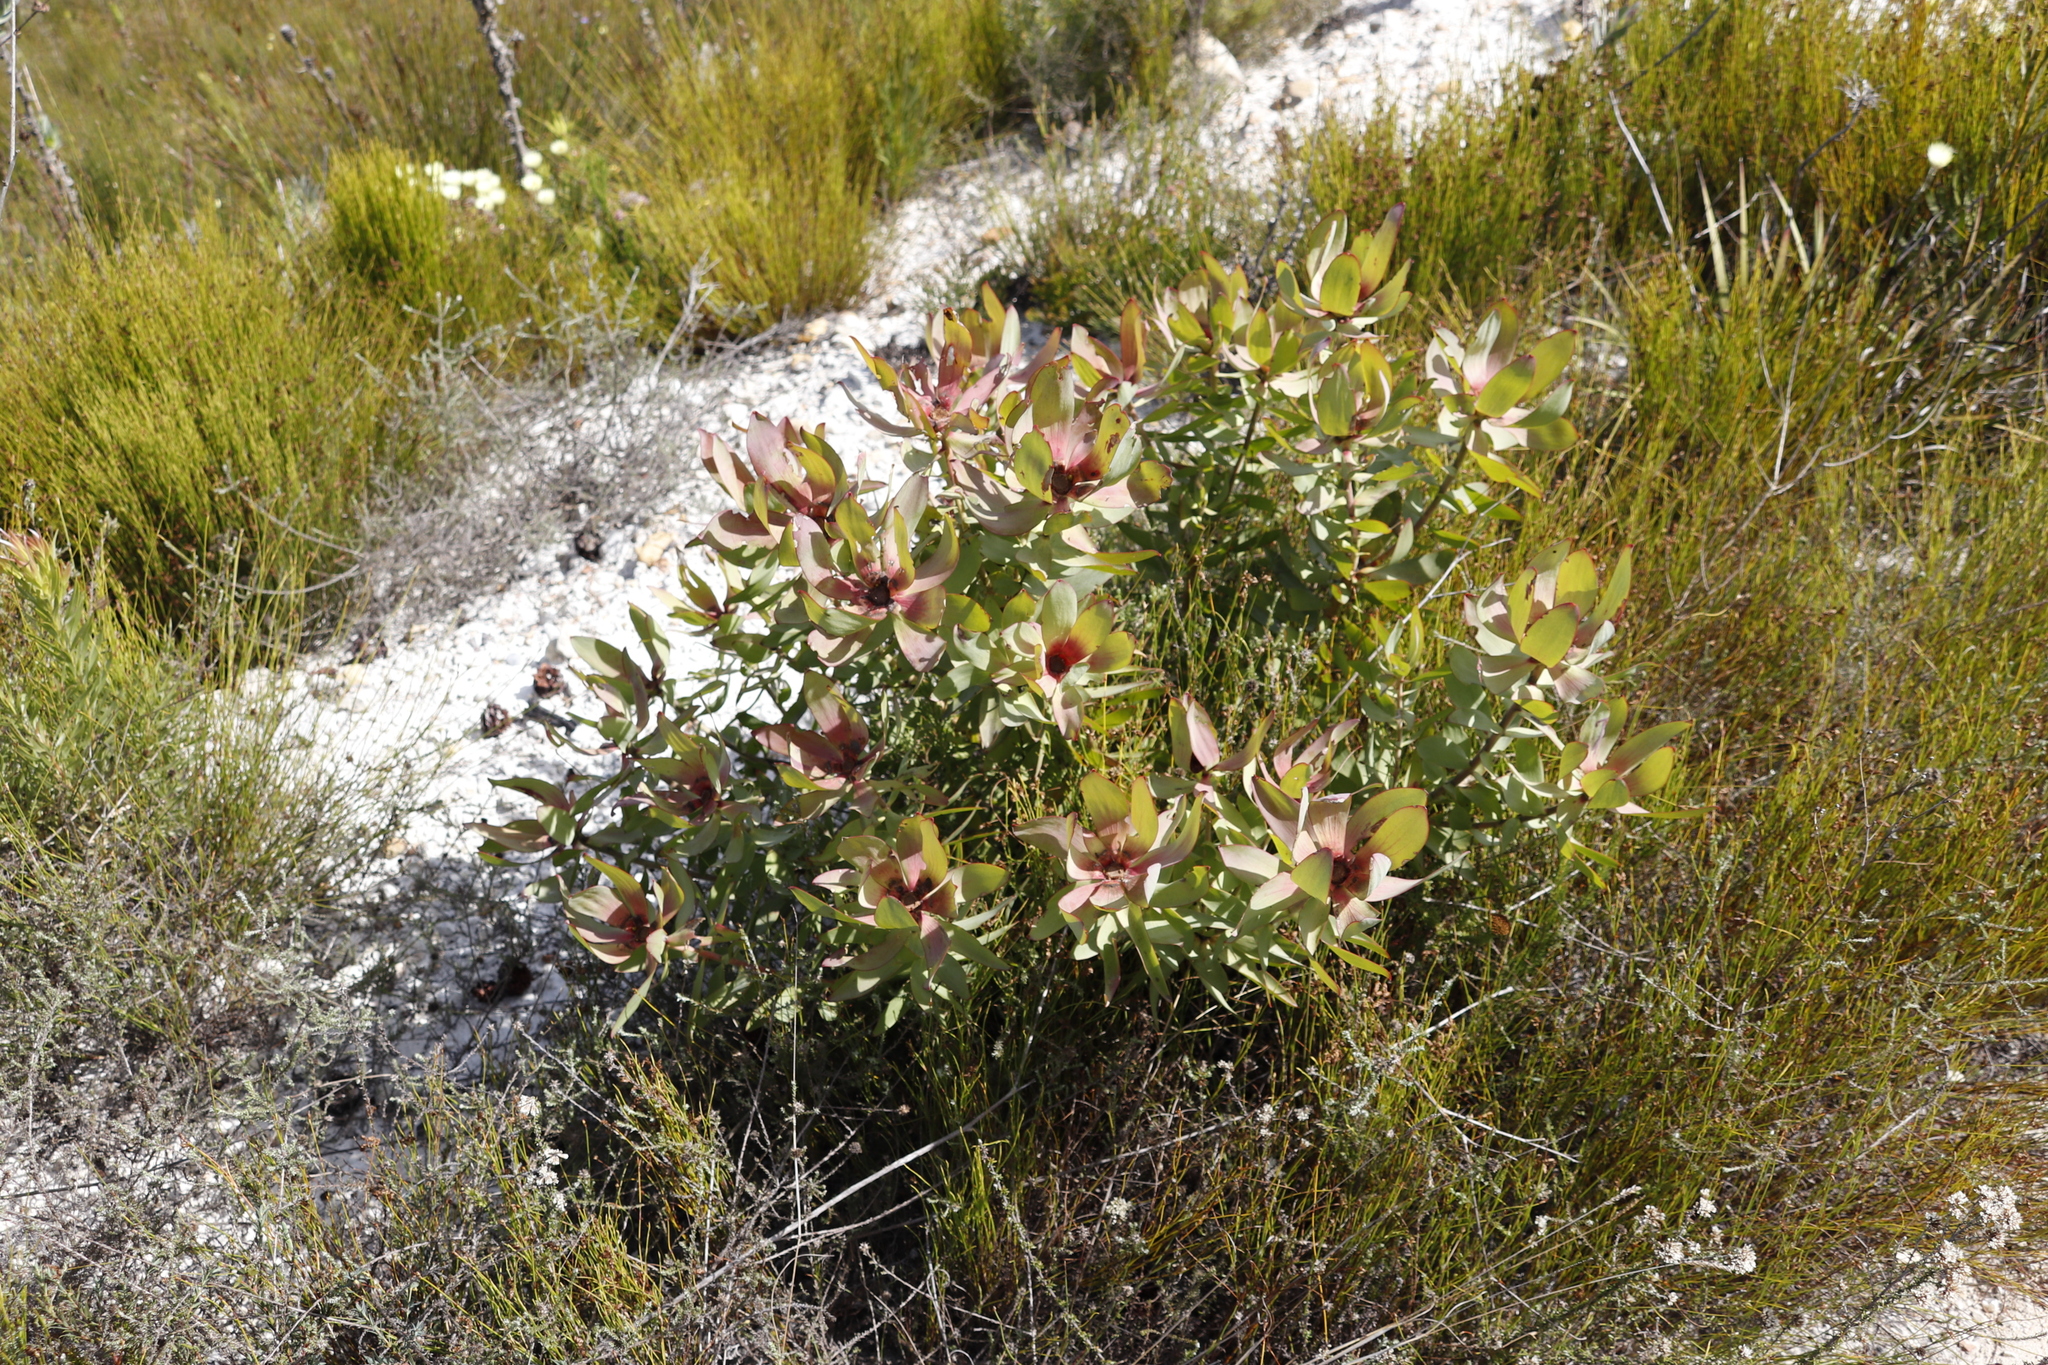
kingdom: Plantae
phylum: Tracheophyta
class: Magnoliopsida
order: Proteales
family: Proteaceae
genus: Leucadendron
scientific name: Leucadendron tinctum
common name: Spicy conebush
